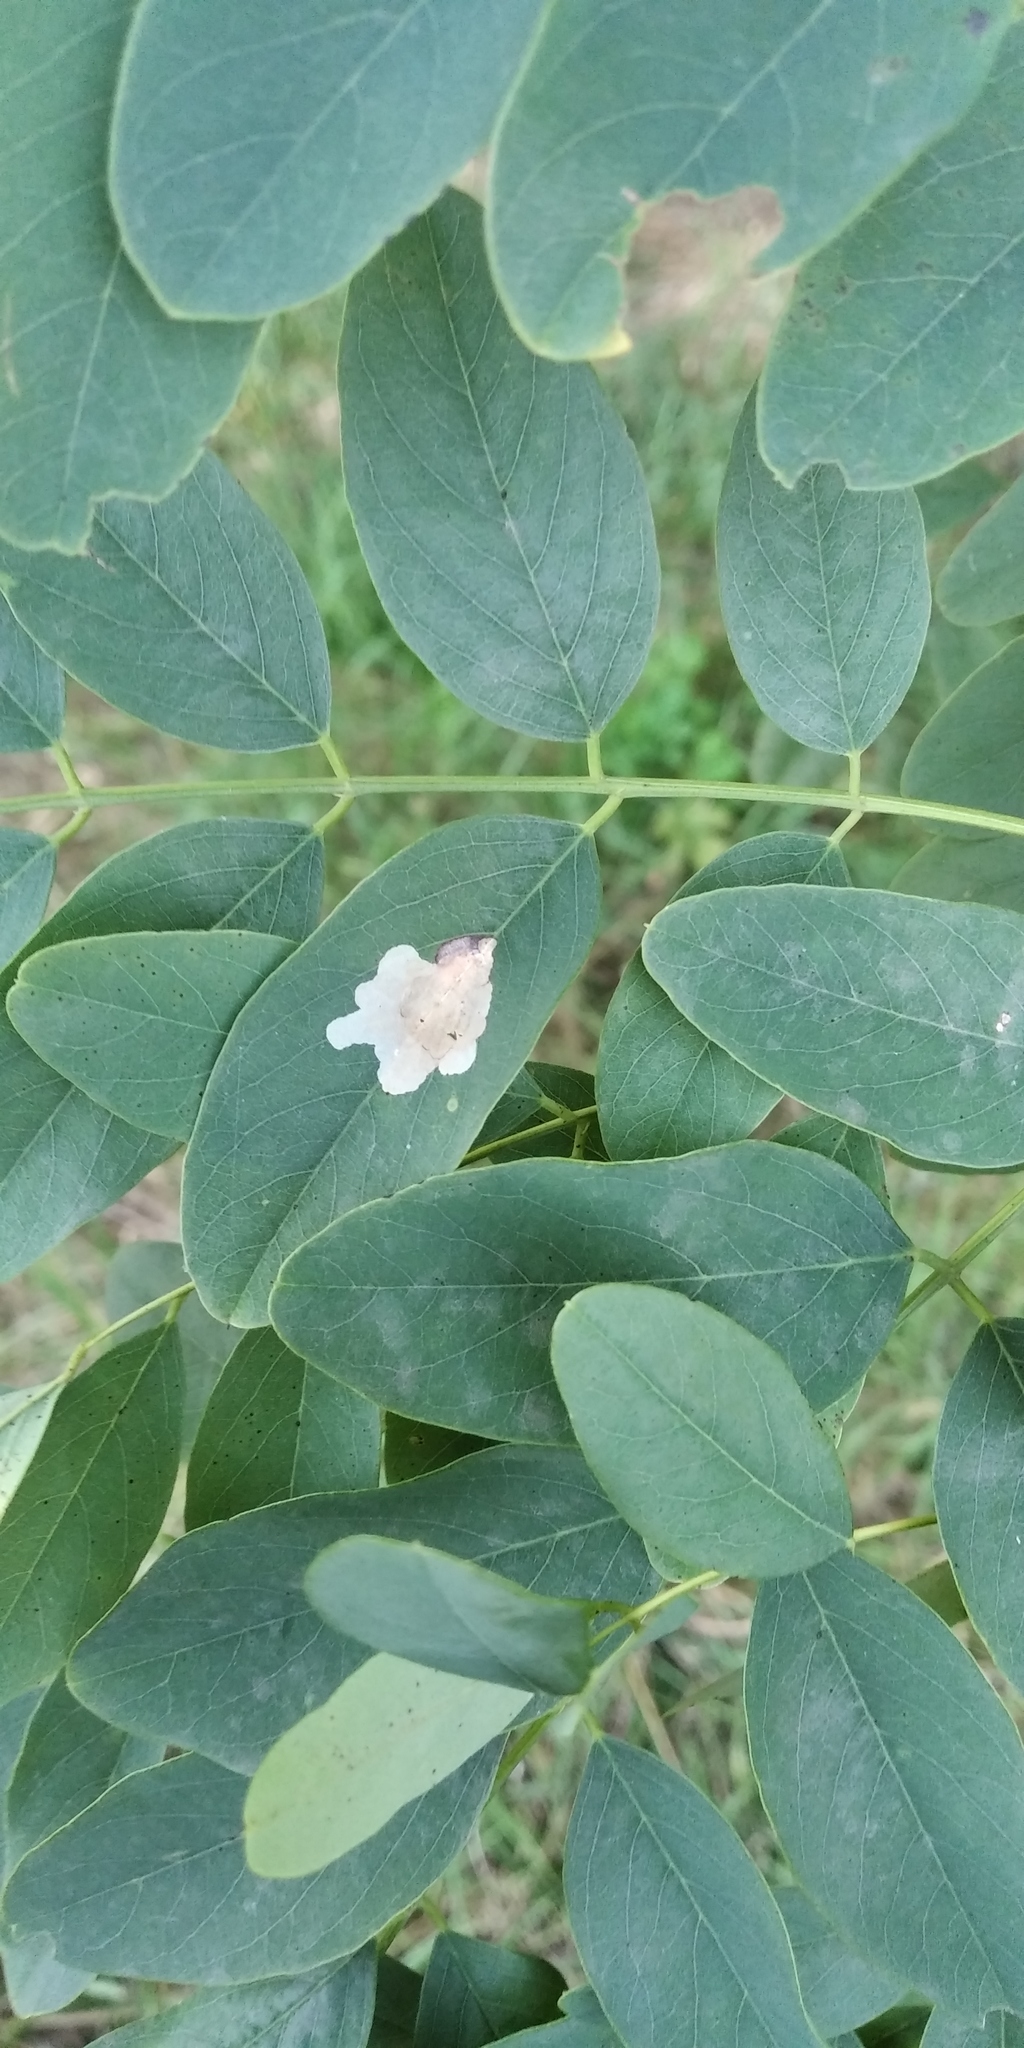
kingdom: Animalia
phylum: Arthropoda
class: Insecta
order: Lepidoptera
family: Gracillariidae
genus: Parectopa
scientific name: Parectopa robiniella
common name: Locust digitate leafminer
